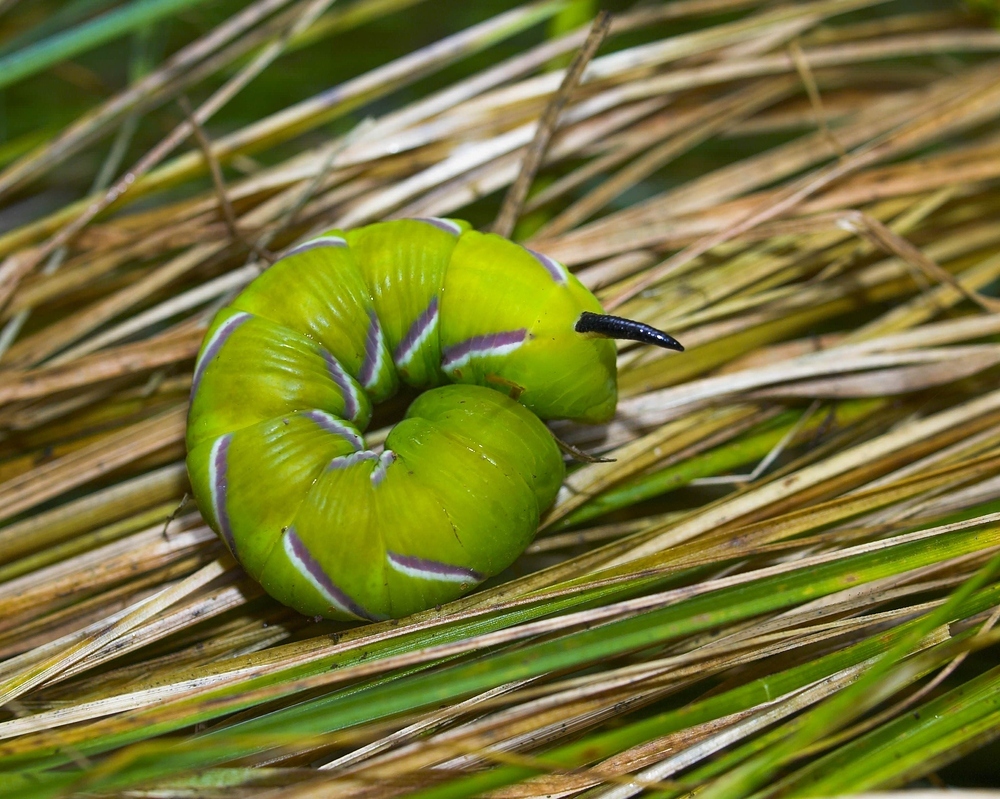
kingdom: Animalia
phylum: Arthropoda
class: Insecta
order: Lepidoptera
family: Sphingidae
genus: Sphinx
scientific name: Sphinx ligustri
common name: Privet hawk-moth
